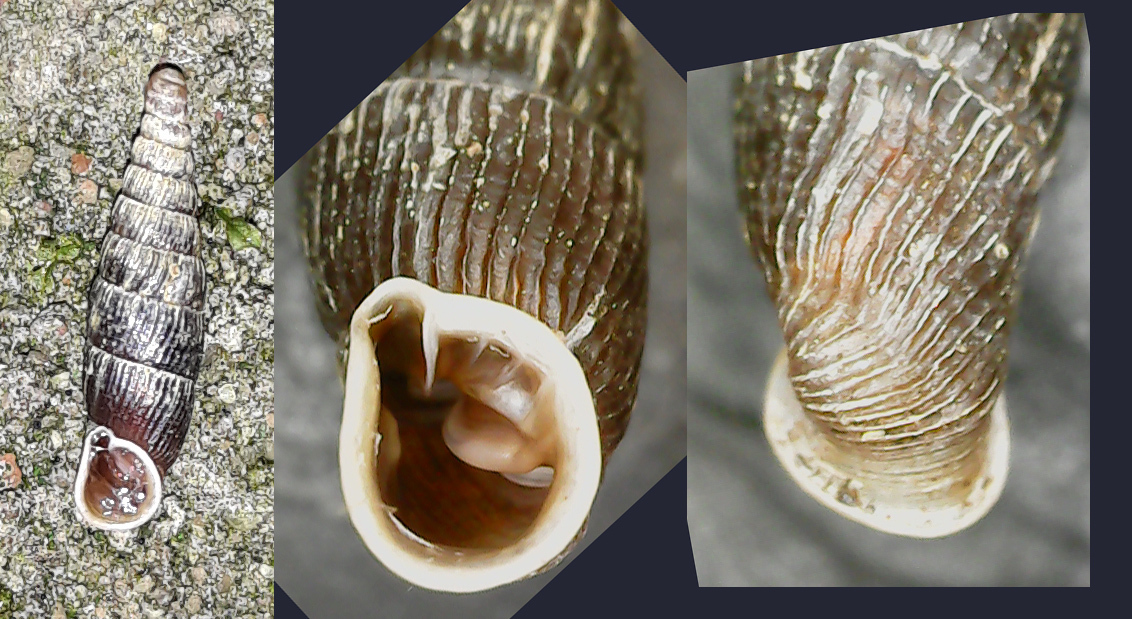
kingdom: Animalia
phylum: Mollusca
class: Gastropoda
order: Stylommatophora
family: Clausiliidae
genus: Macrogastra
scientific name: Macrogastra plicatula
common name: Plicate door snail
